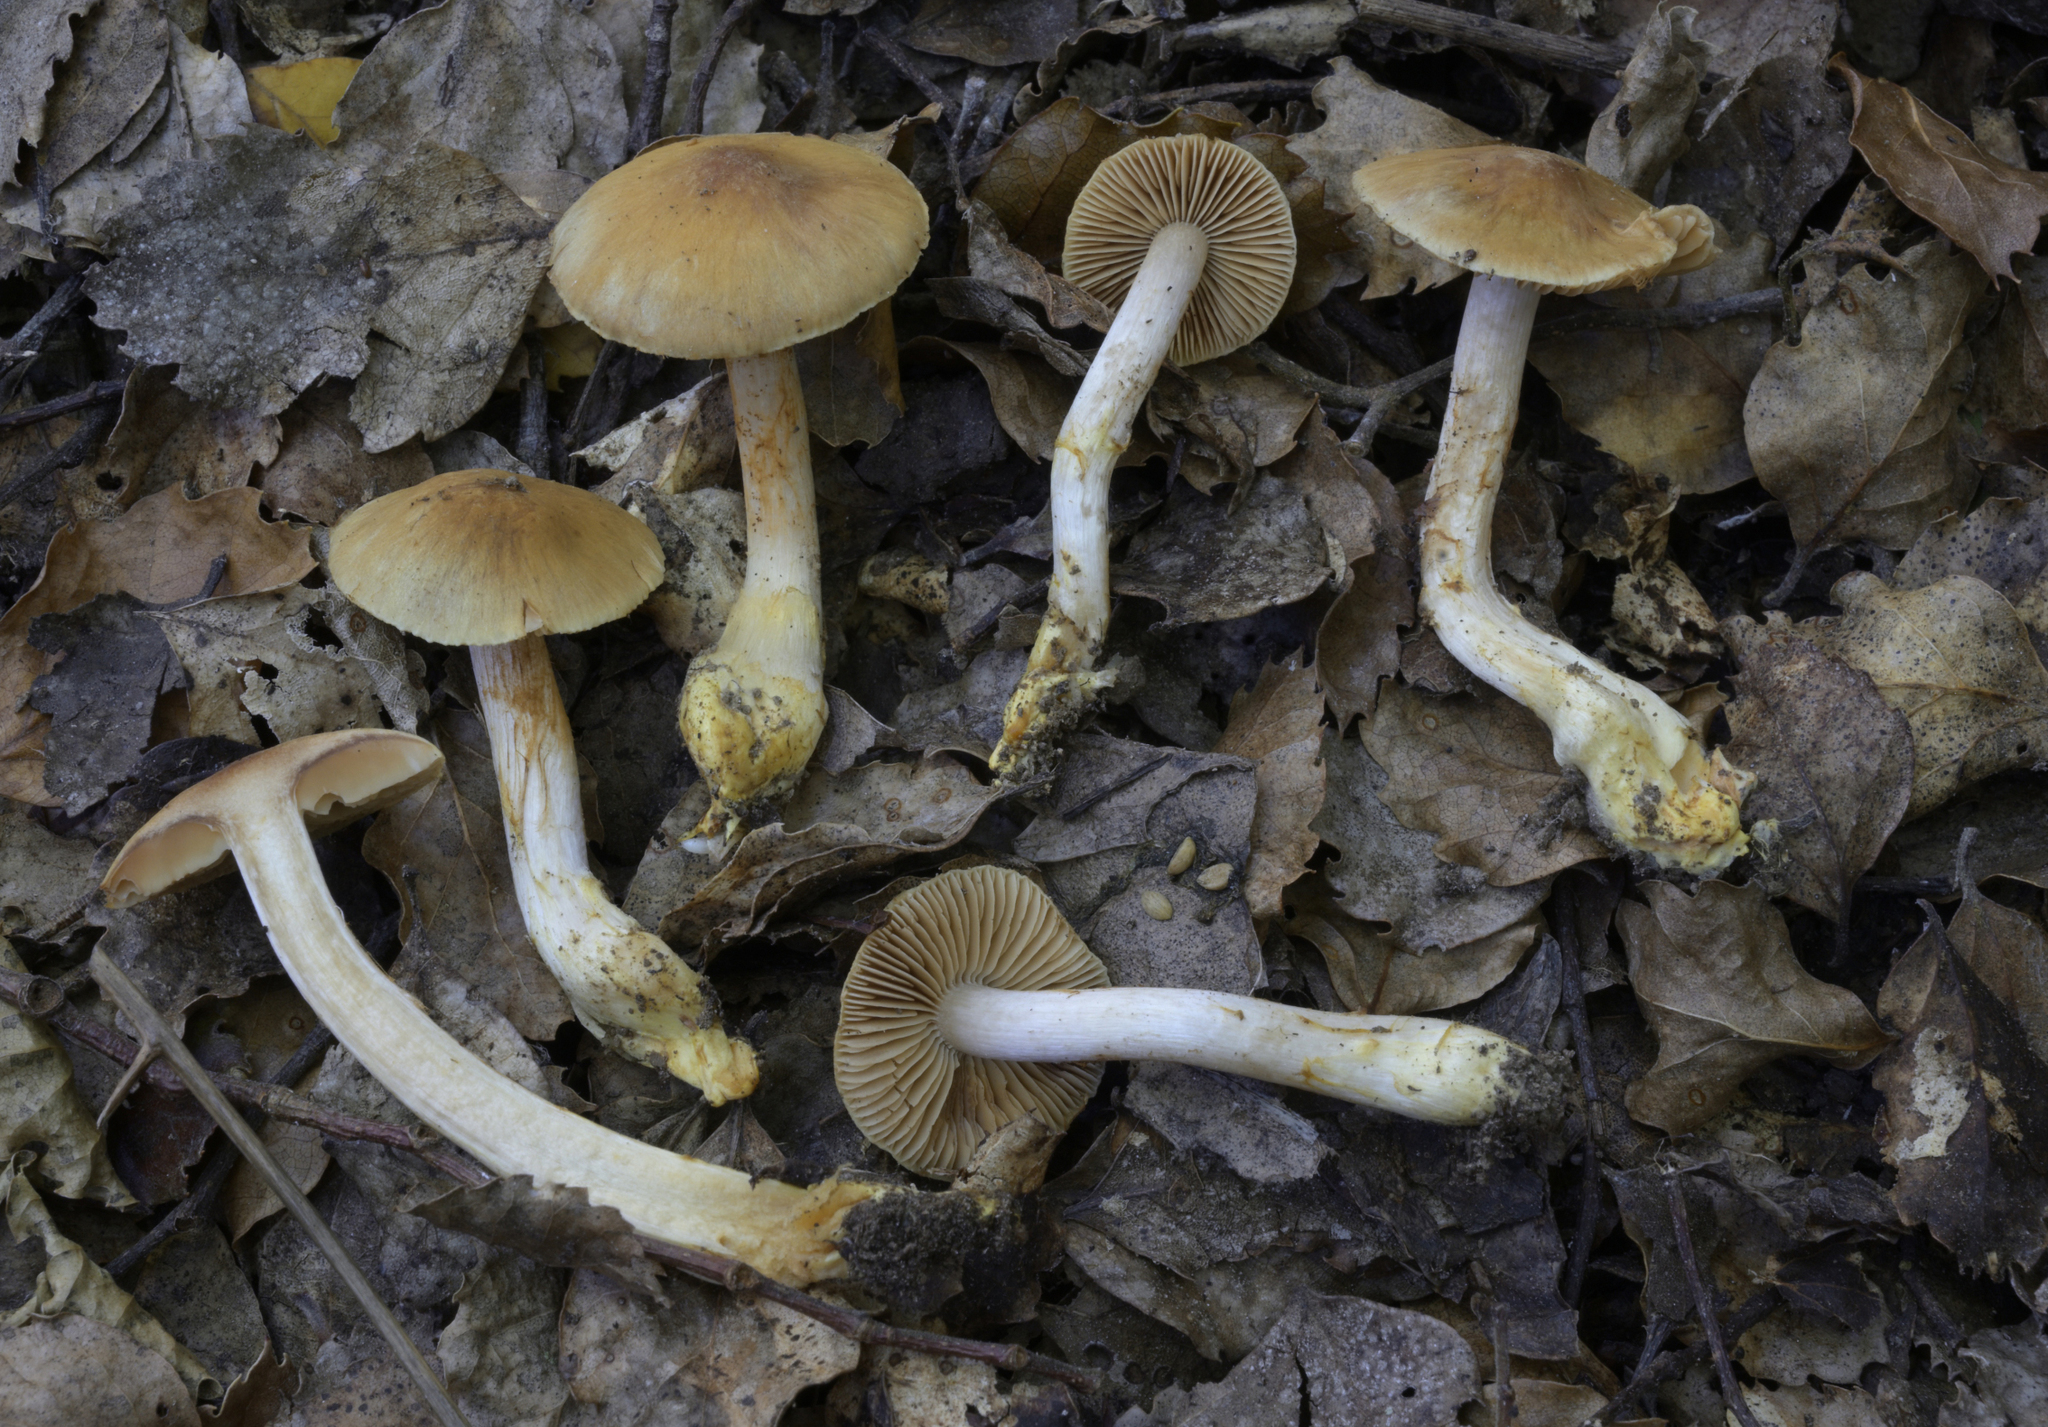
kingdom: Fungi
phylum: Basidiomycota
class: Agaricomycetes
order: Agaricales
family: Cortinariaceae
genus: Cortinarius
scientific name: Cortinarius orixanthus
